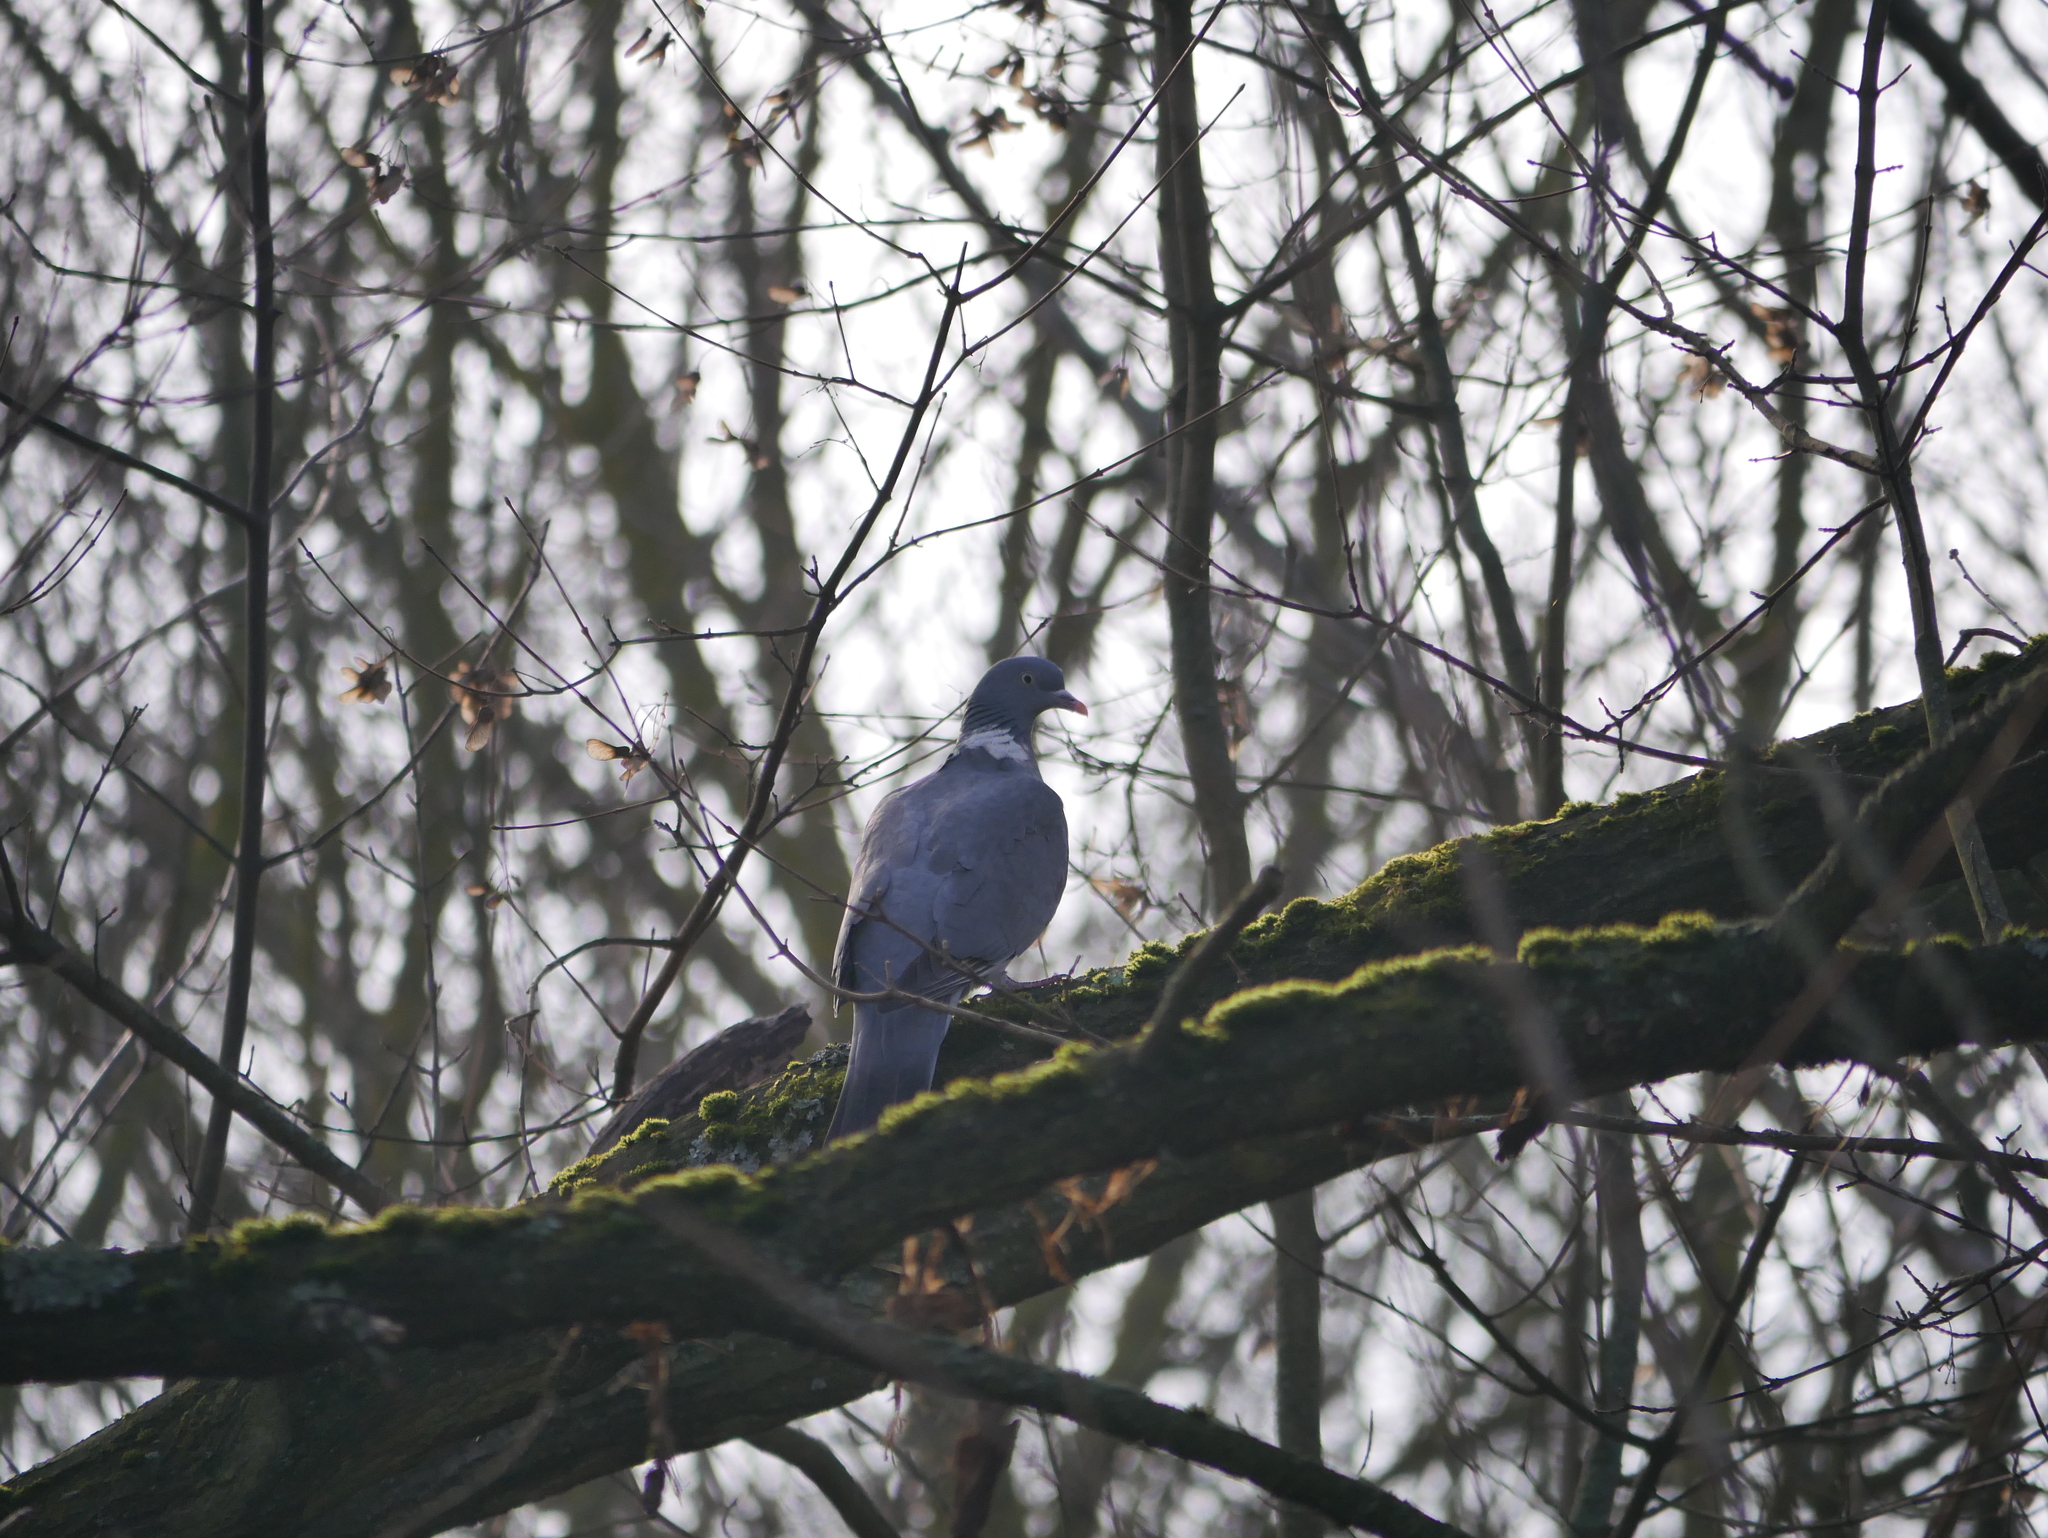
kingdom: Animalia
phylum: Chordata
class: Aves
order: Columbiformes
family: Columbidae
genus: Columba
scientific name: Columba palumbus
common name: Common wood pigeon
